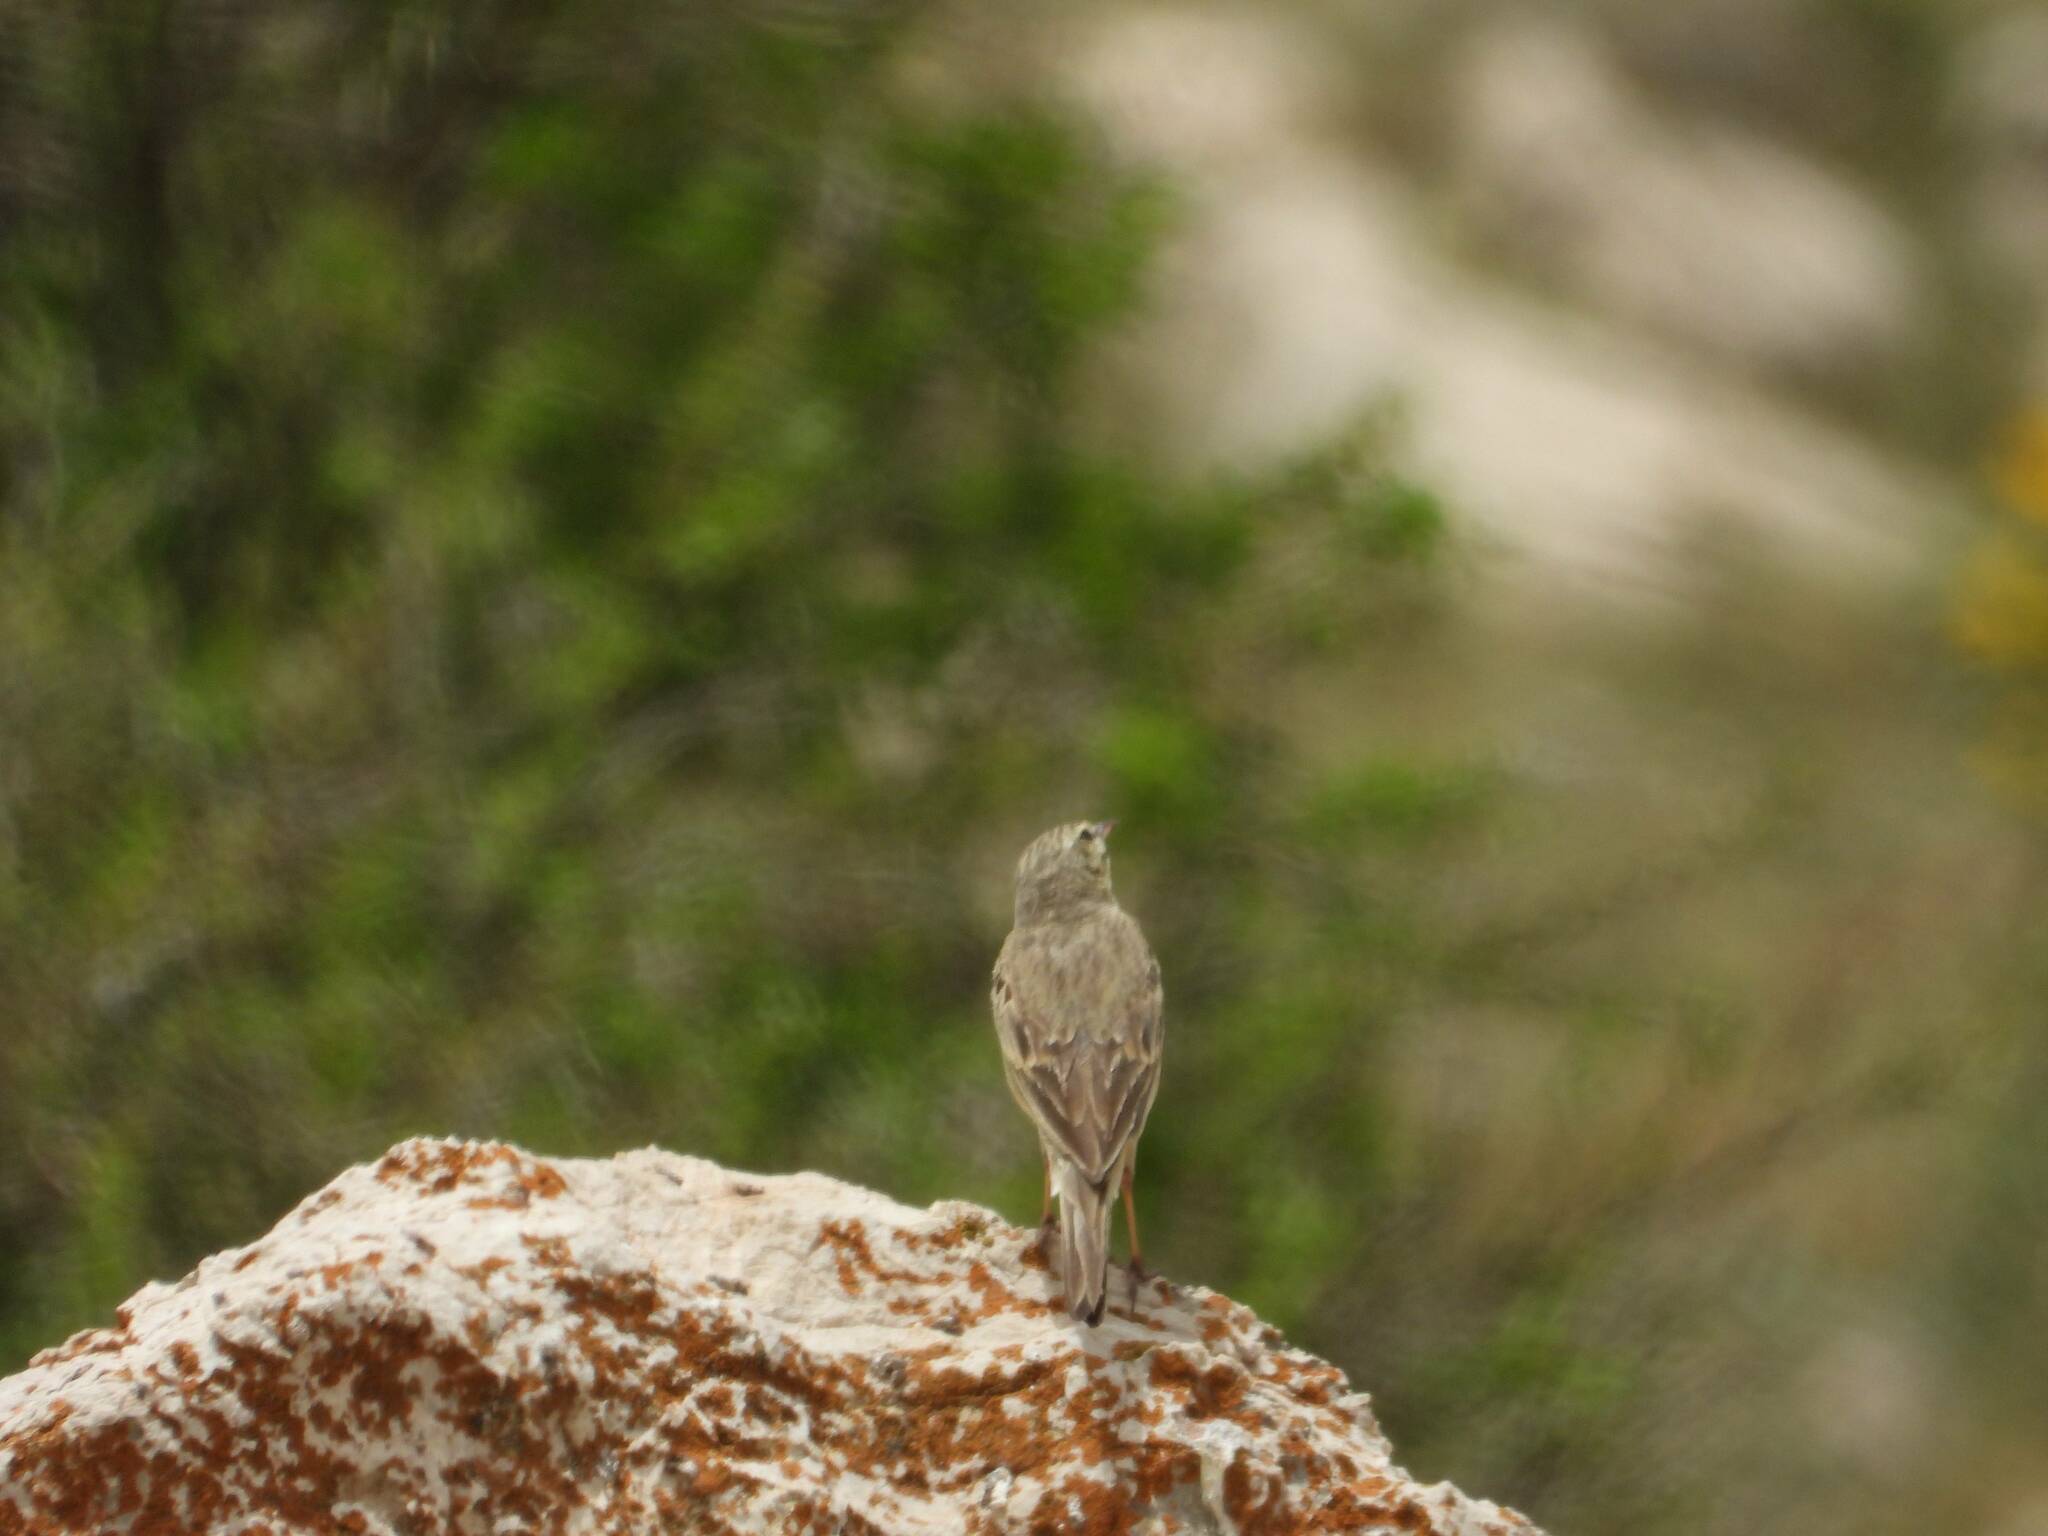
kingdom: Animalia
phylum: Chordata
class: Aves
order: Passeriformes
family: Motacillidae
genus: Anthus
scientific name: Anthus campestris
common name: Tawny pipit
